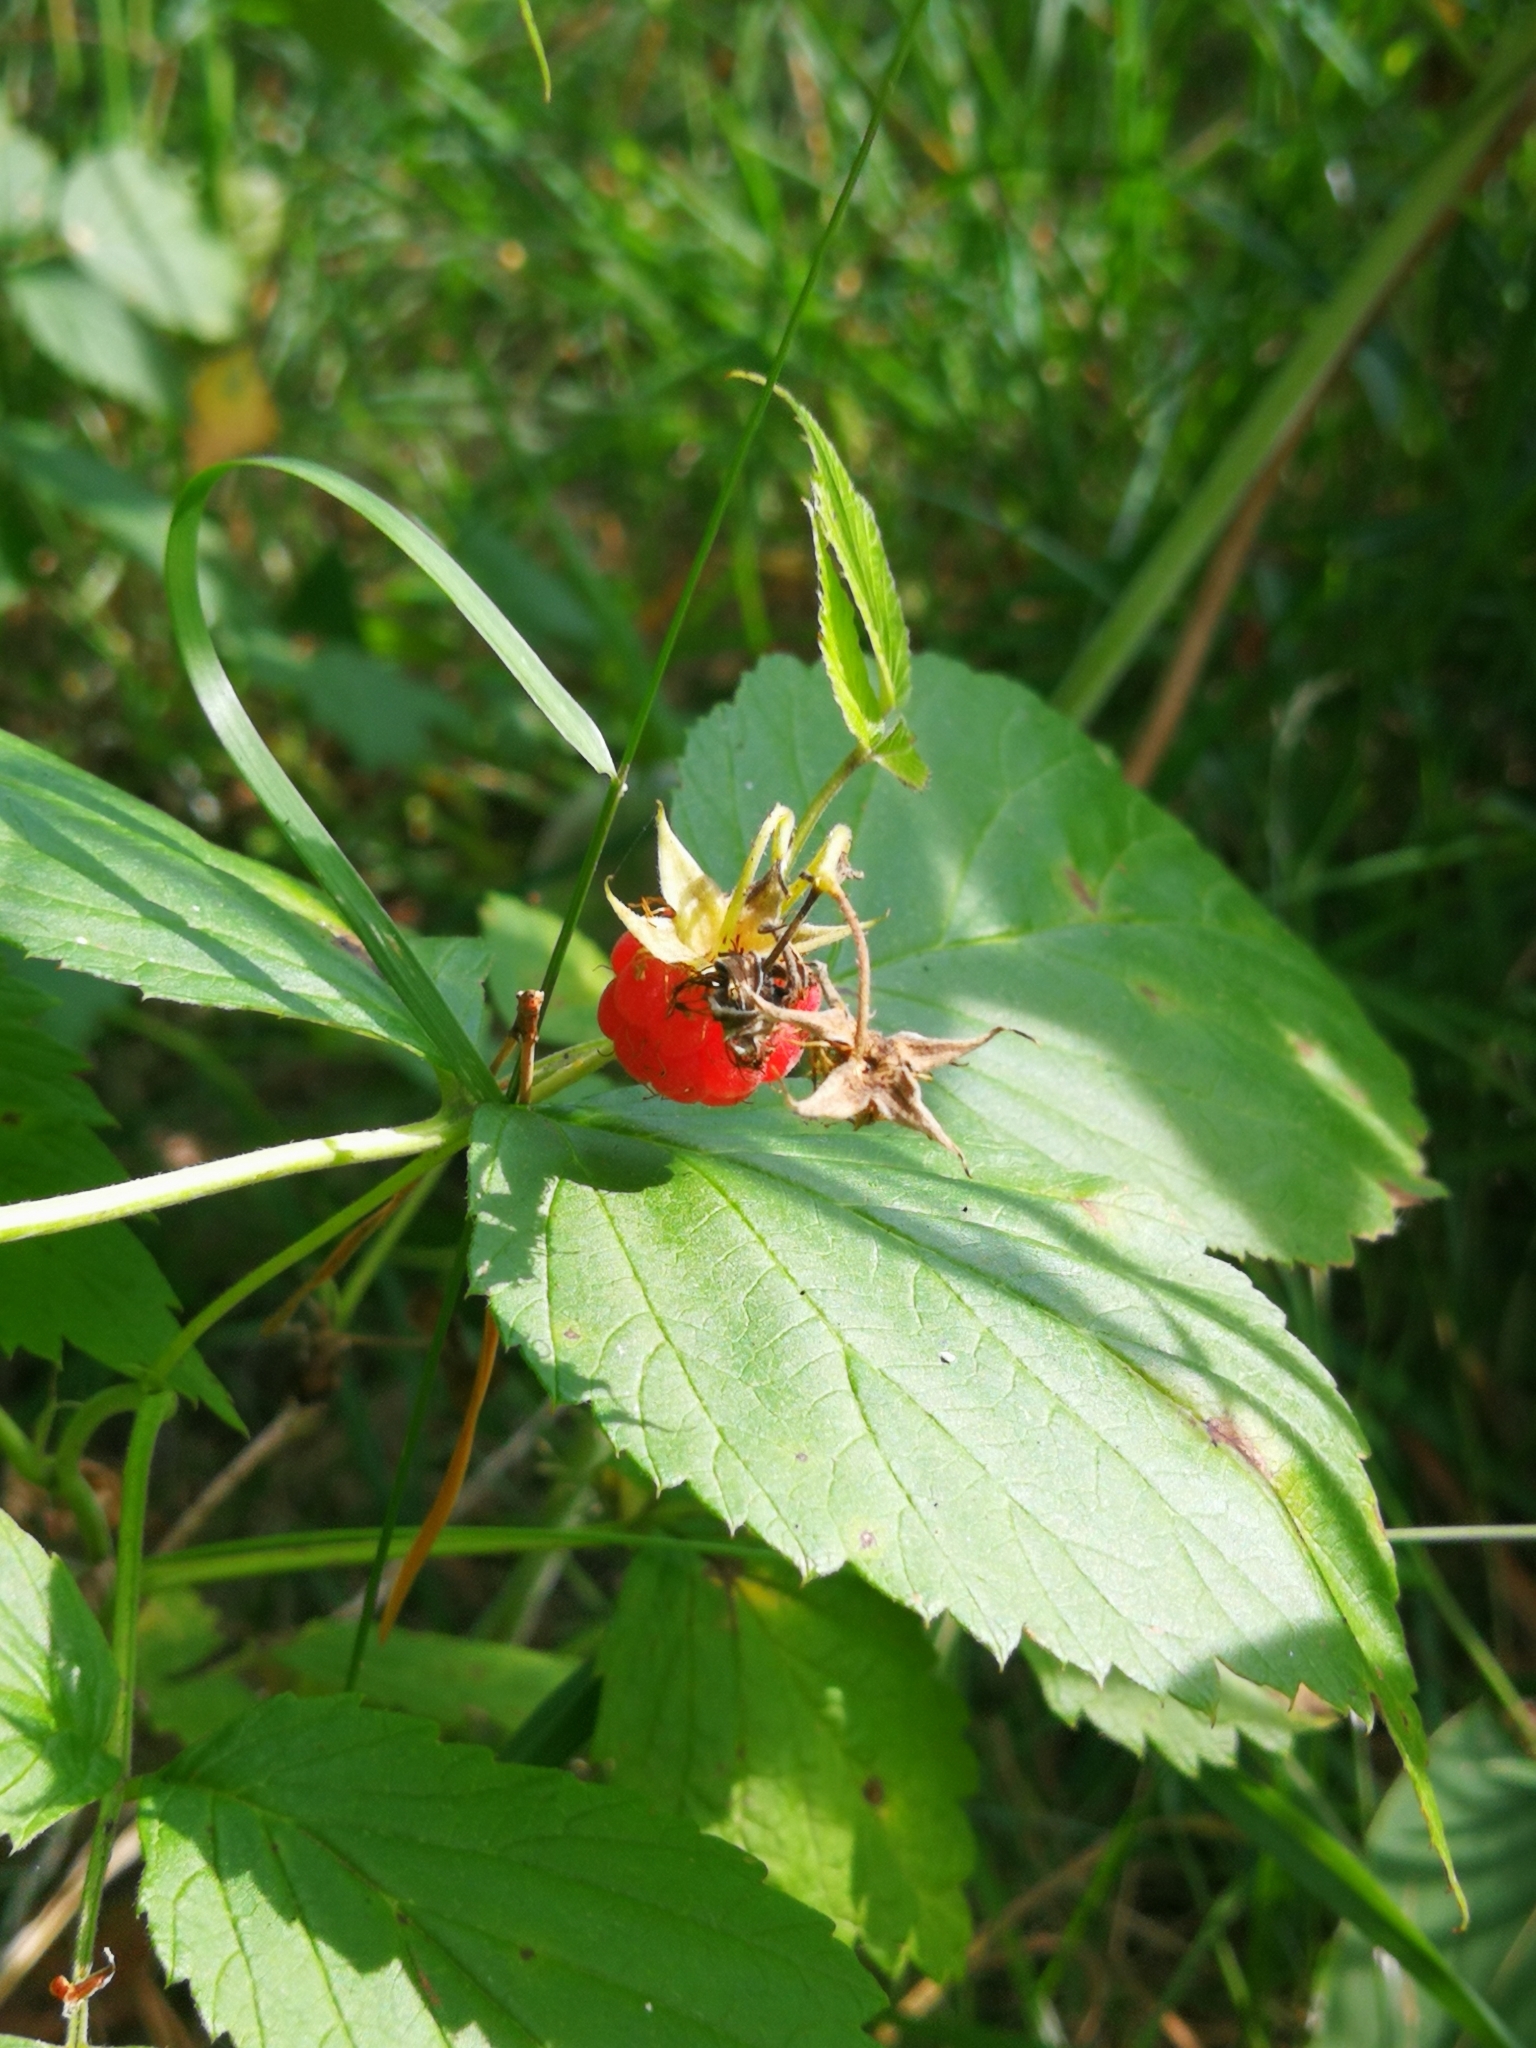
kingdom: Plantae
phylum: Tracheophyta
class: Magnoliopsida
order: Rosales
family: Rosaceae
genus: Rubus
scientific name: Rubus idaeus
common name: Raspberry
